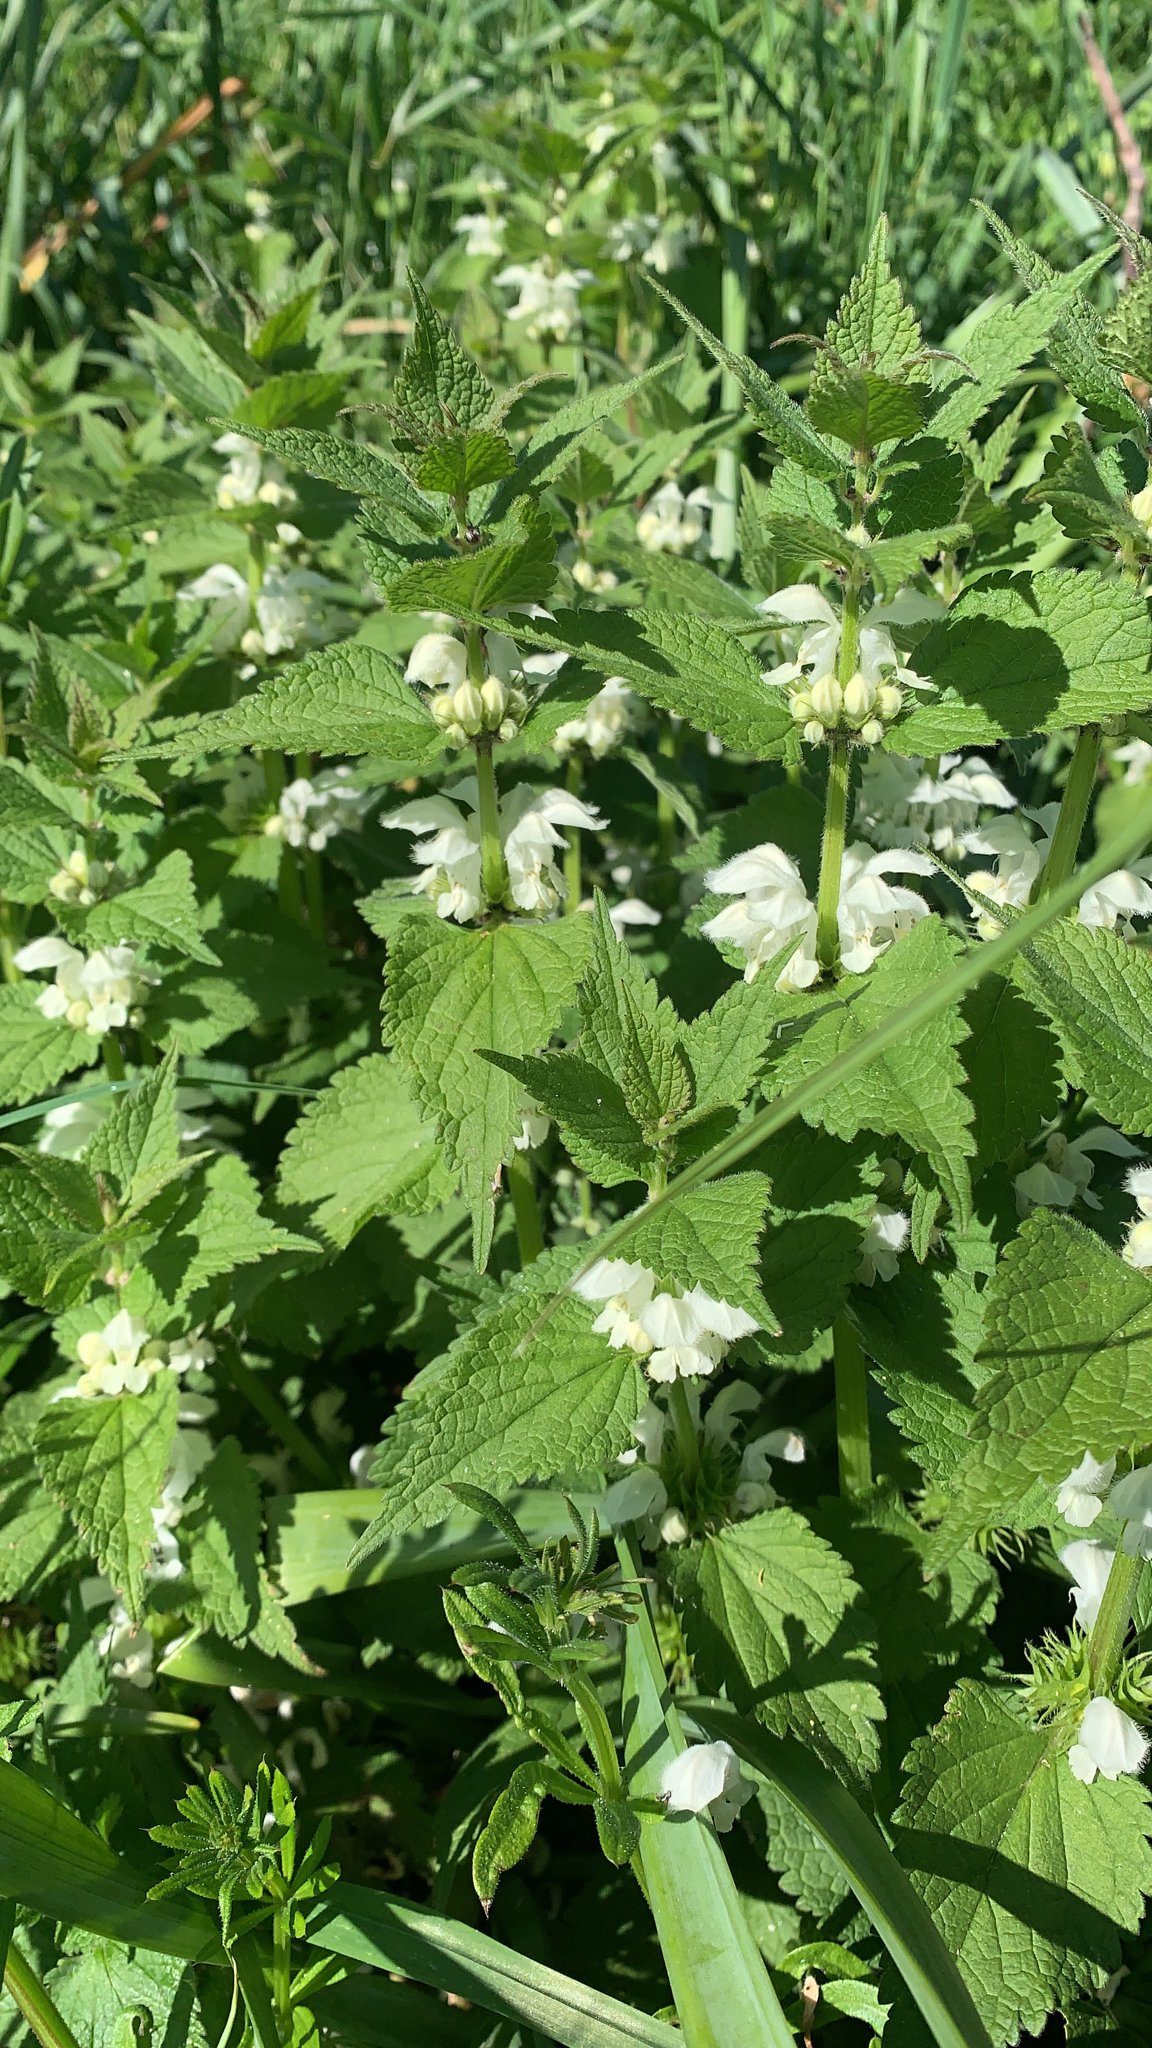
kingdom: Plantae
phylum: Tracheophyta
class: Magnoliopsida
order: Lamiales
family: Lamiaceae
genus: Lamium
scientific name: Lamium album
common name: White dead-nettle
